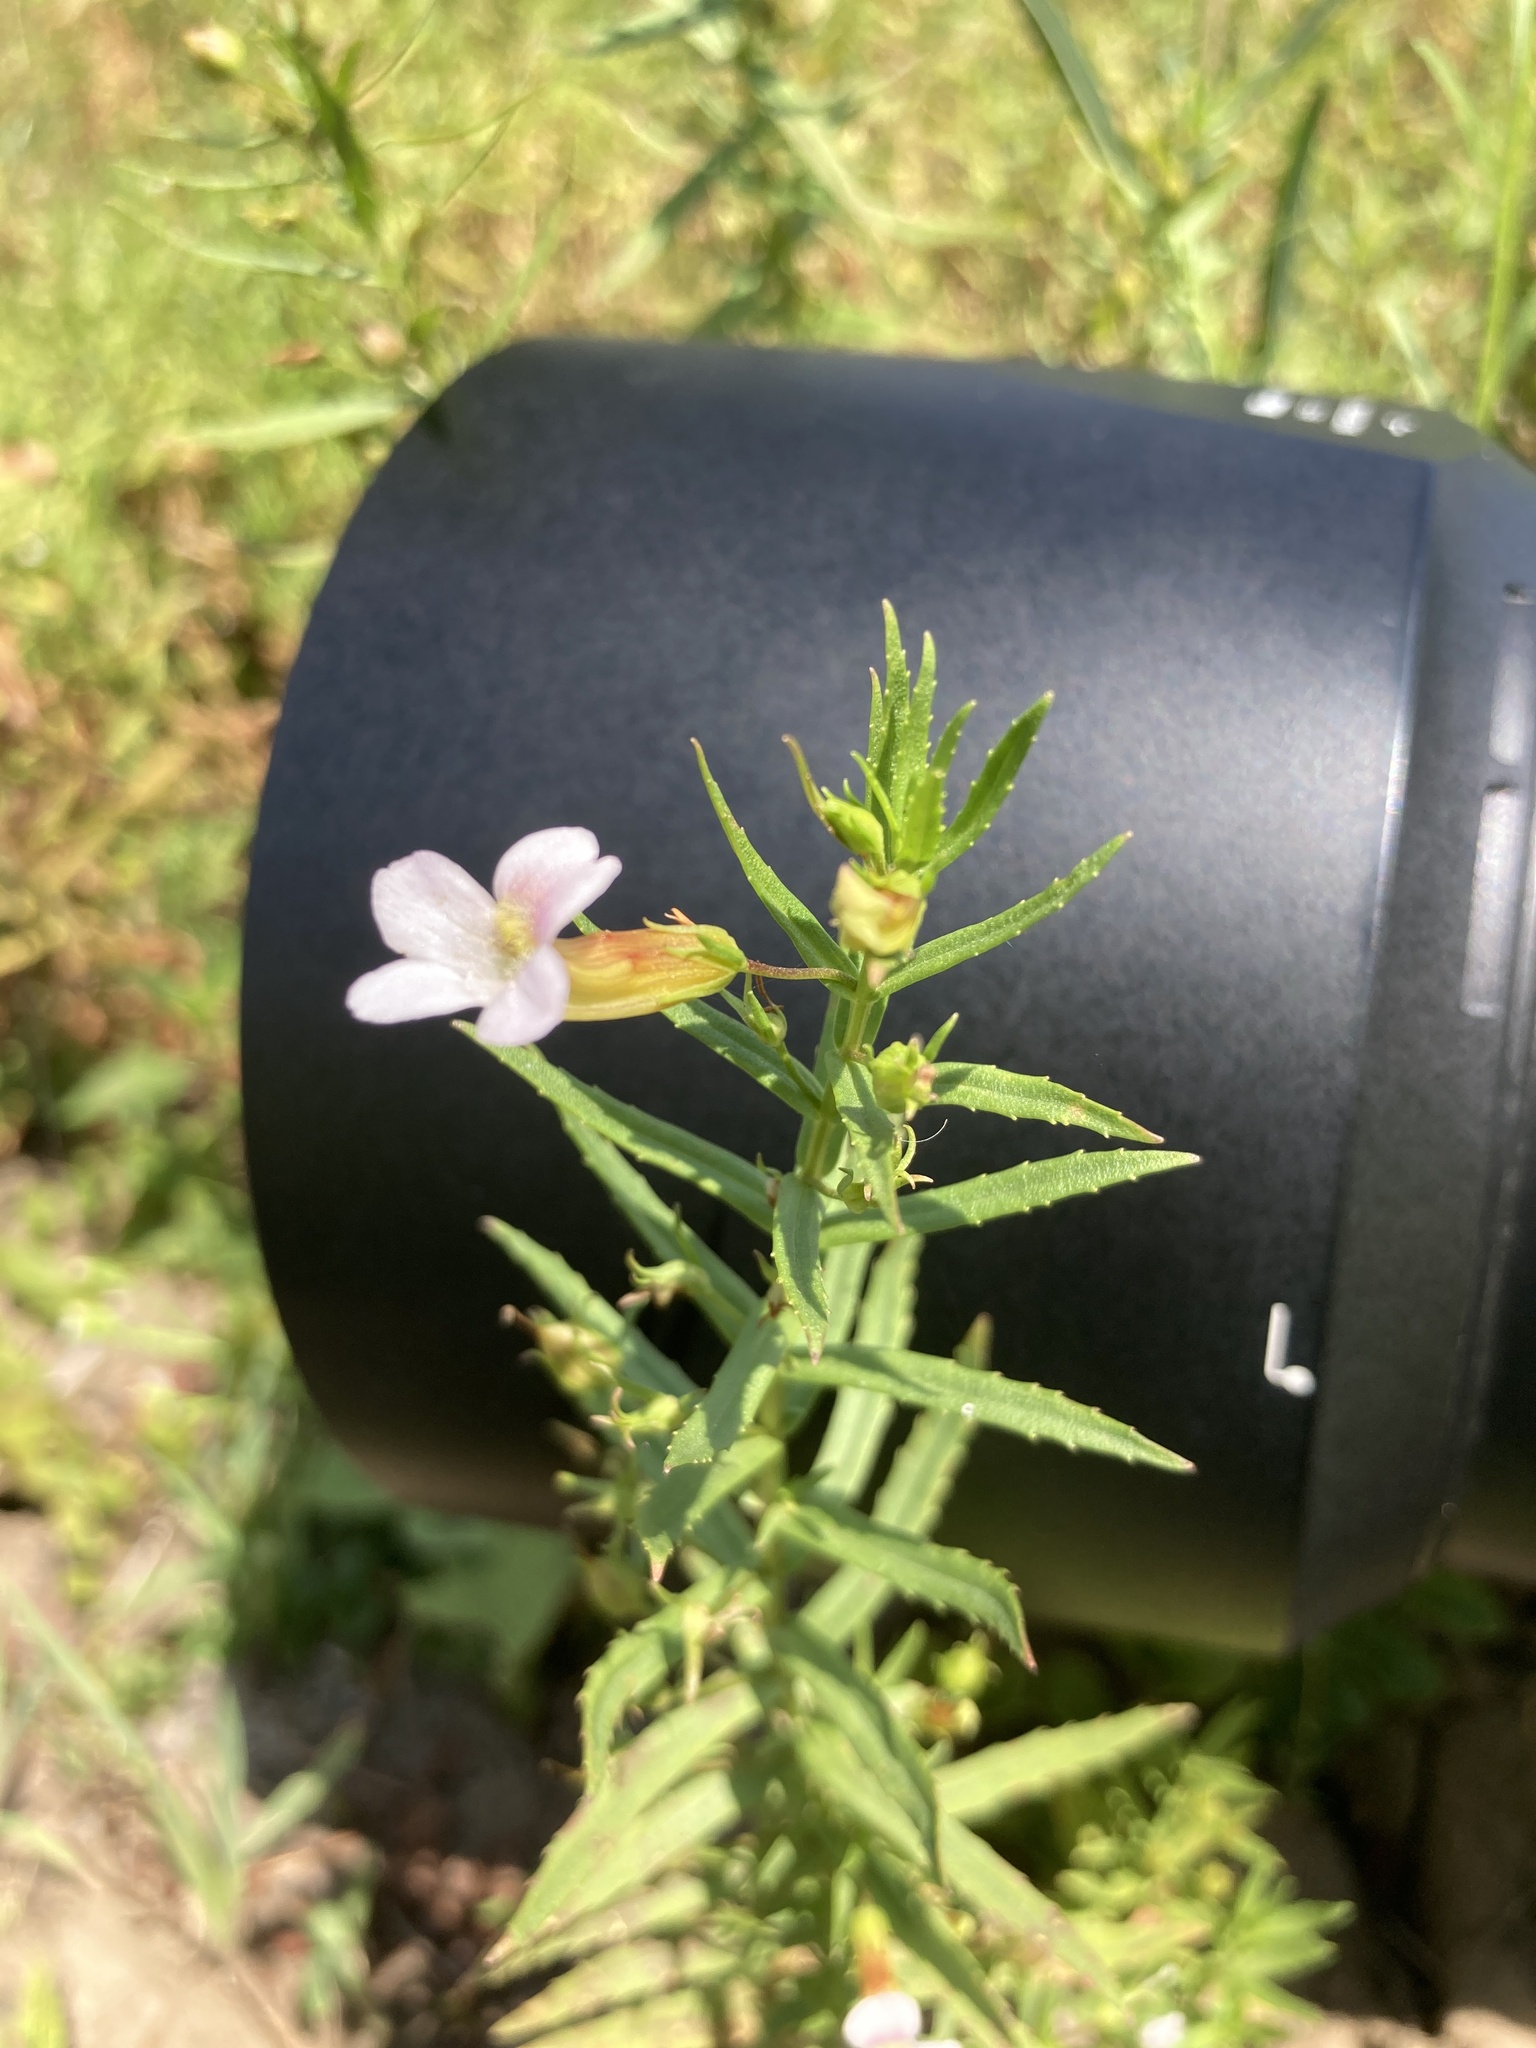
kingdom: Plantae
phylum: Tracheophyta
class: Magnoliopsida
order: Lamiales
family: Plantaginaceae
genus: Gratiola
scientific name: Gratiola officinalis
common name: Gratiola
